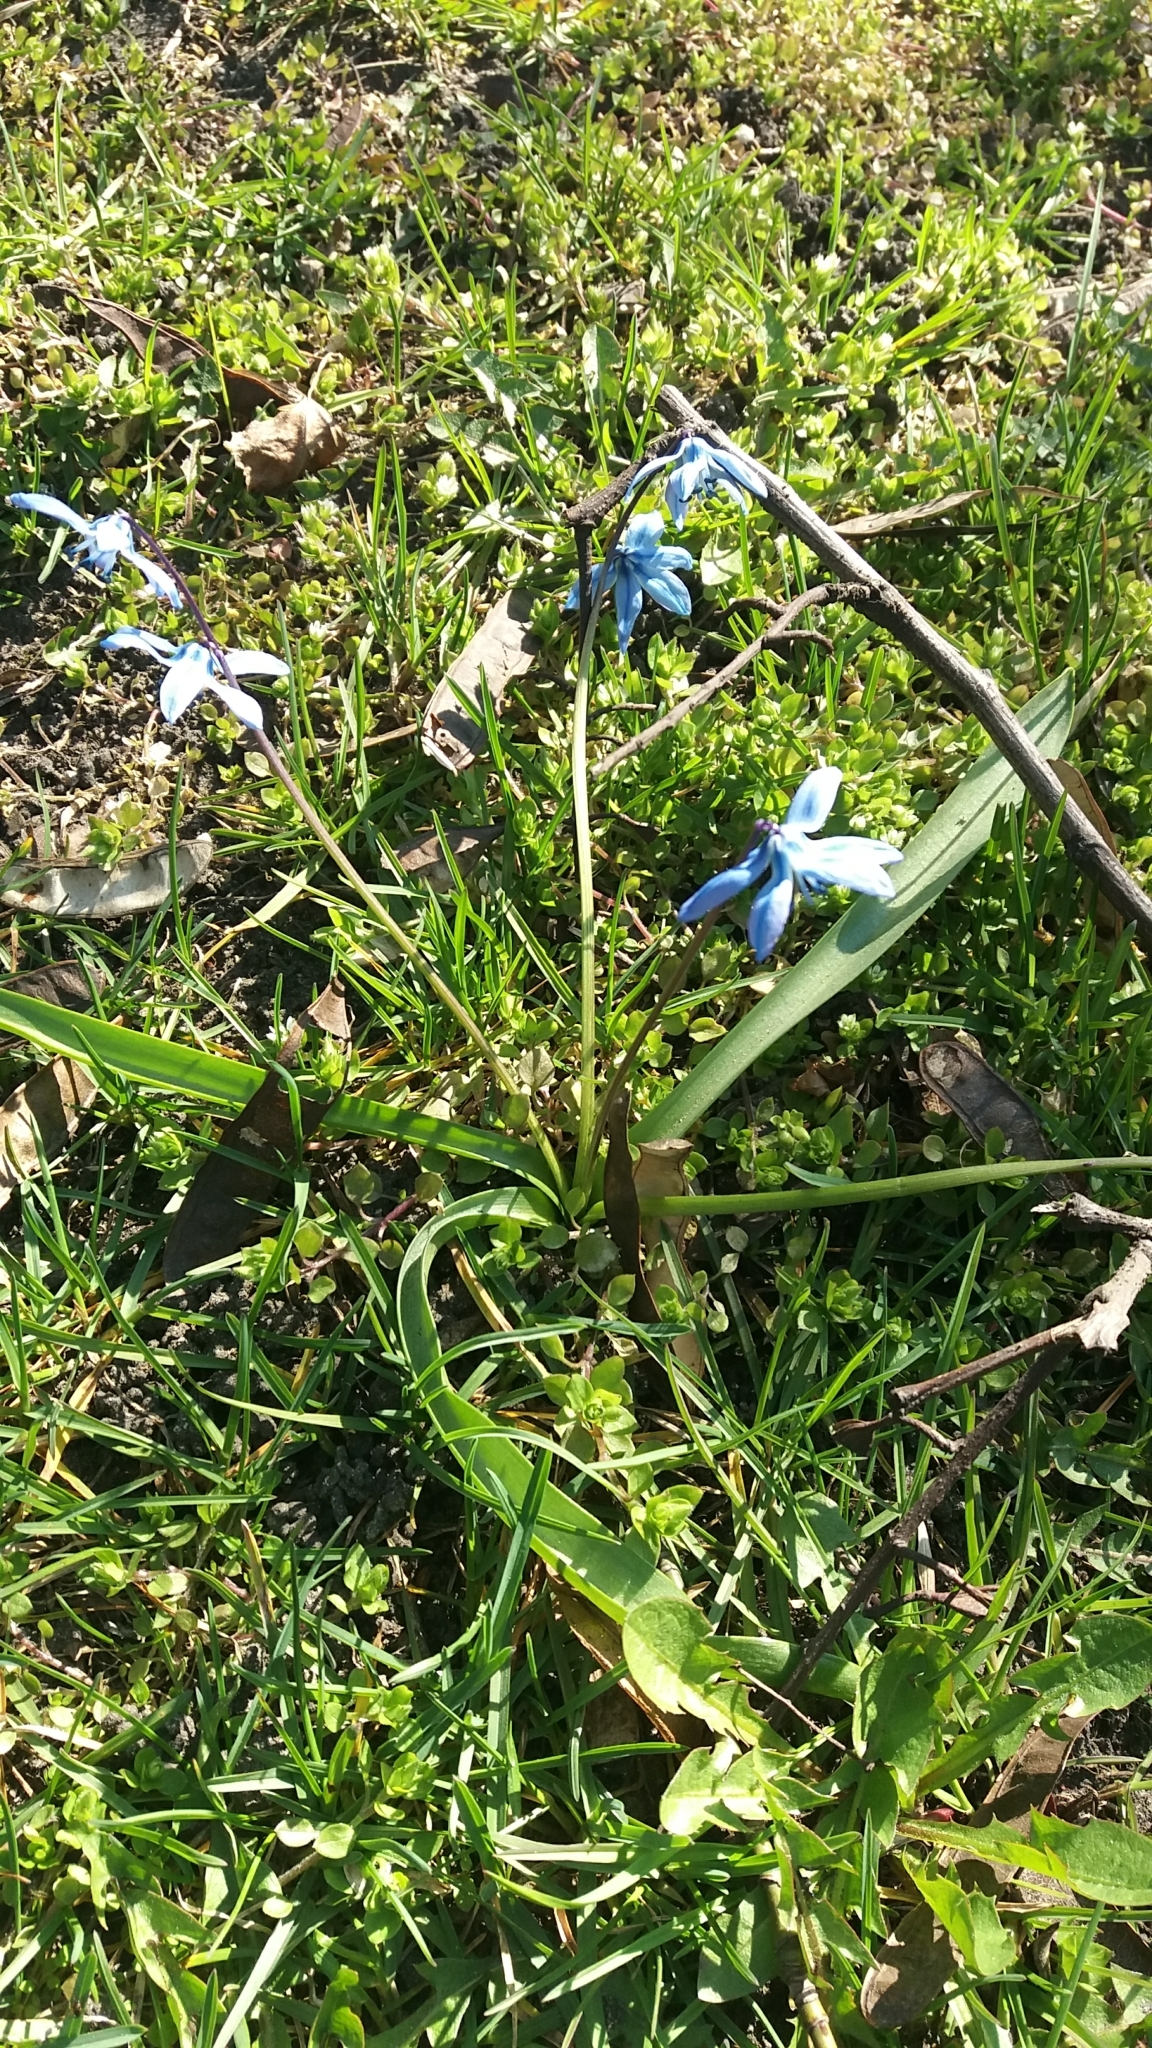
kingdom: Plantae
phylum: Tracheophyta
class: Liliopsida
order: Asparagales
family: Asparagaceae
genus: Scilla
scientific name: Scilla siberica
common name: Siberian squill
